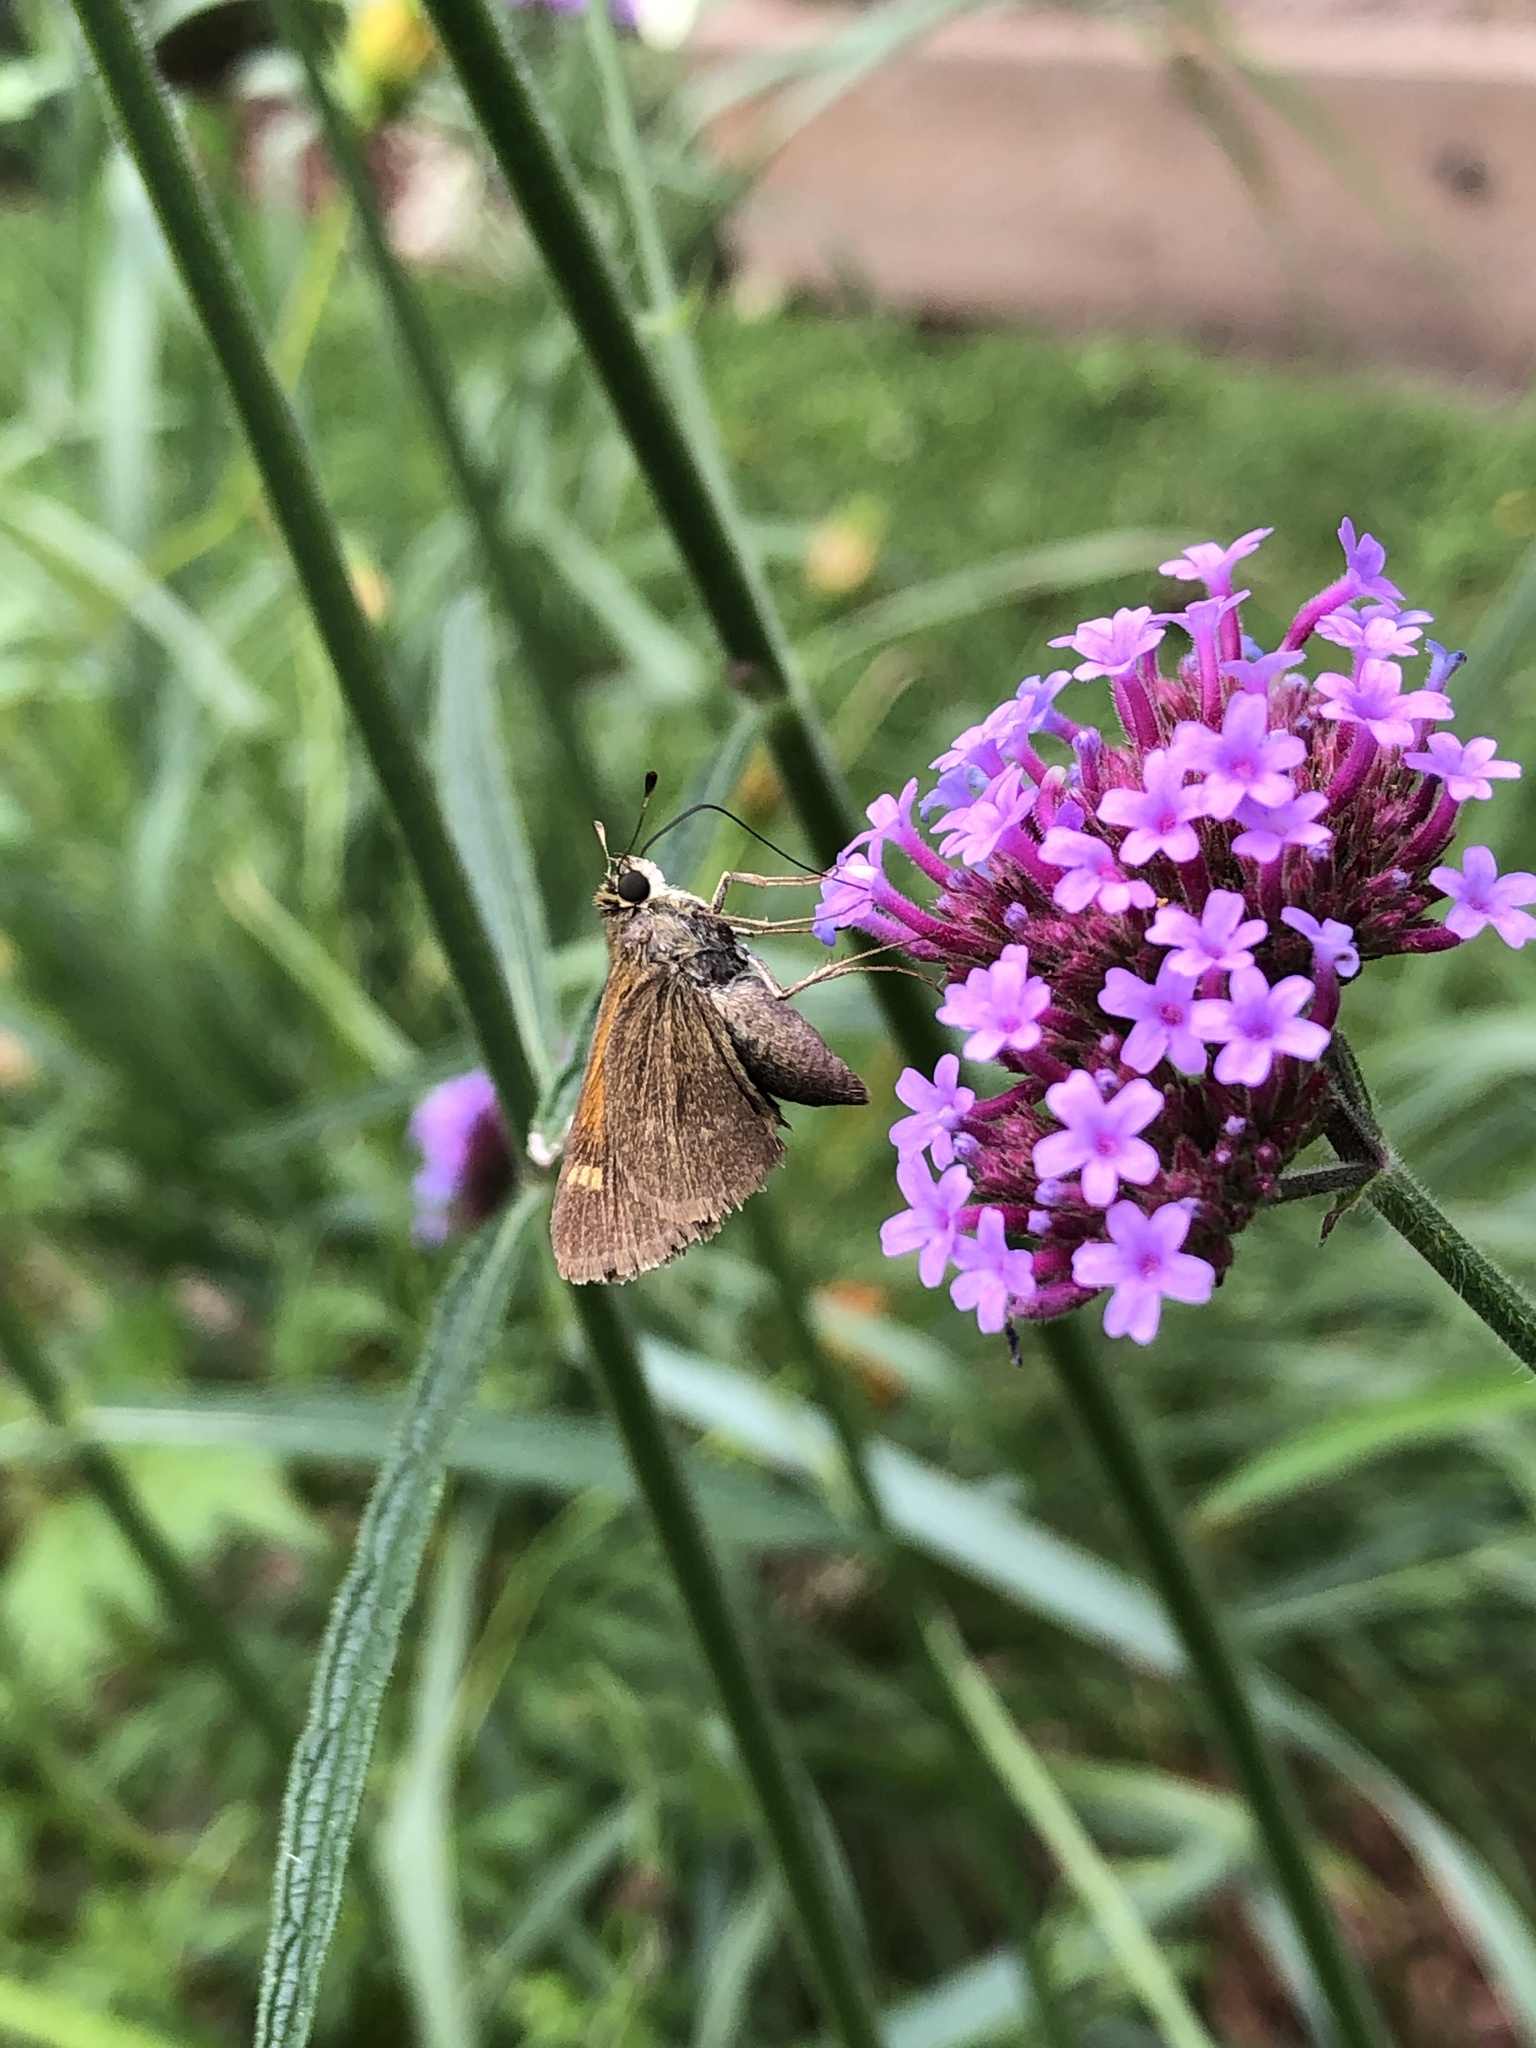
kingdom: Animalia
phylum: Arthropoda
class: Insecta
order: Lepidoptera
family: Hesperiidae
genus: Polites
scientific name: Polites themistocles
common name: Tawny-edged skipper
